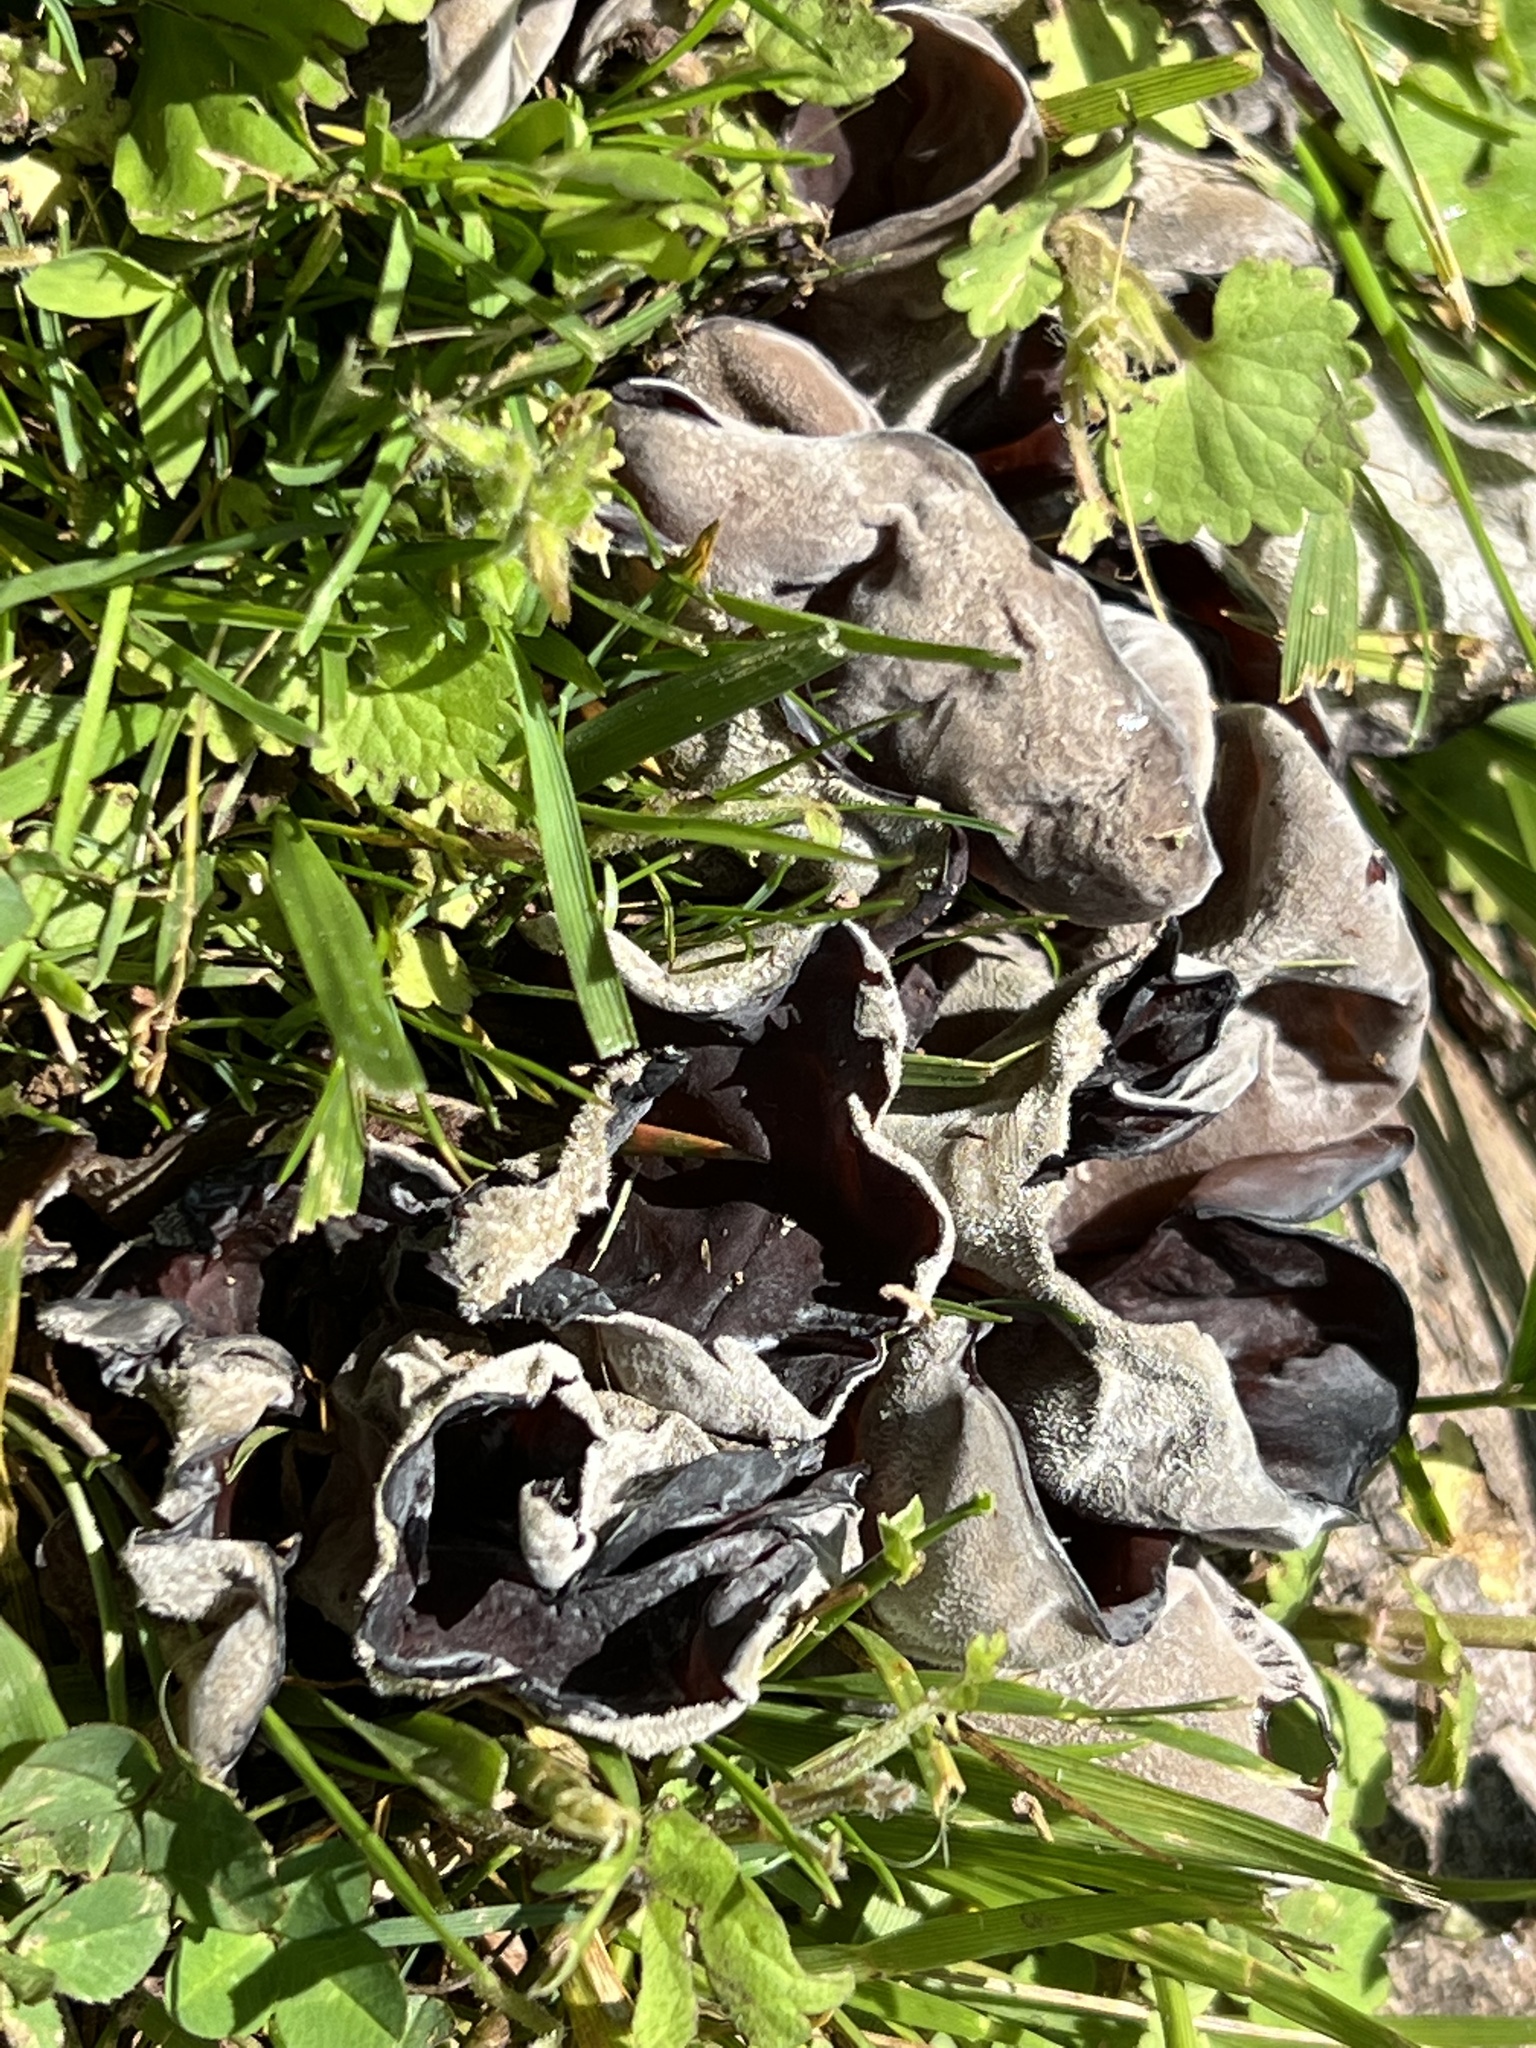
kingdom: Fungi
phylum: Basidiomycota
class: Agaricomycetes
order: Auriculariales
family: Auriculariaceae
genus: Auricularia
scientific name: Auricularia nigricans
